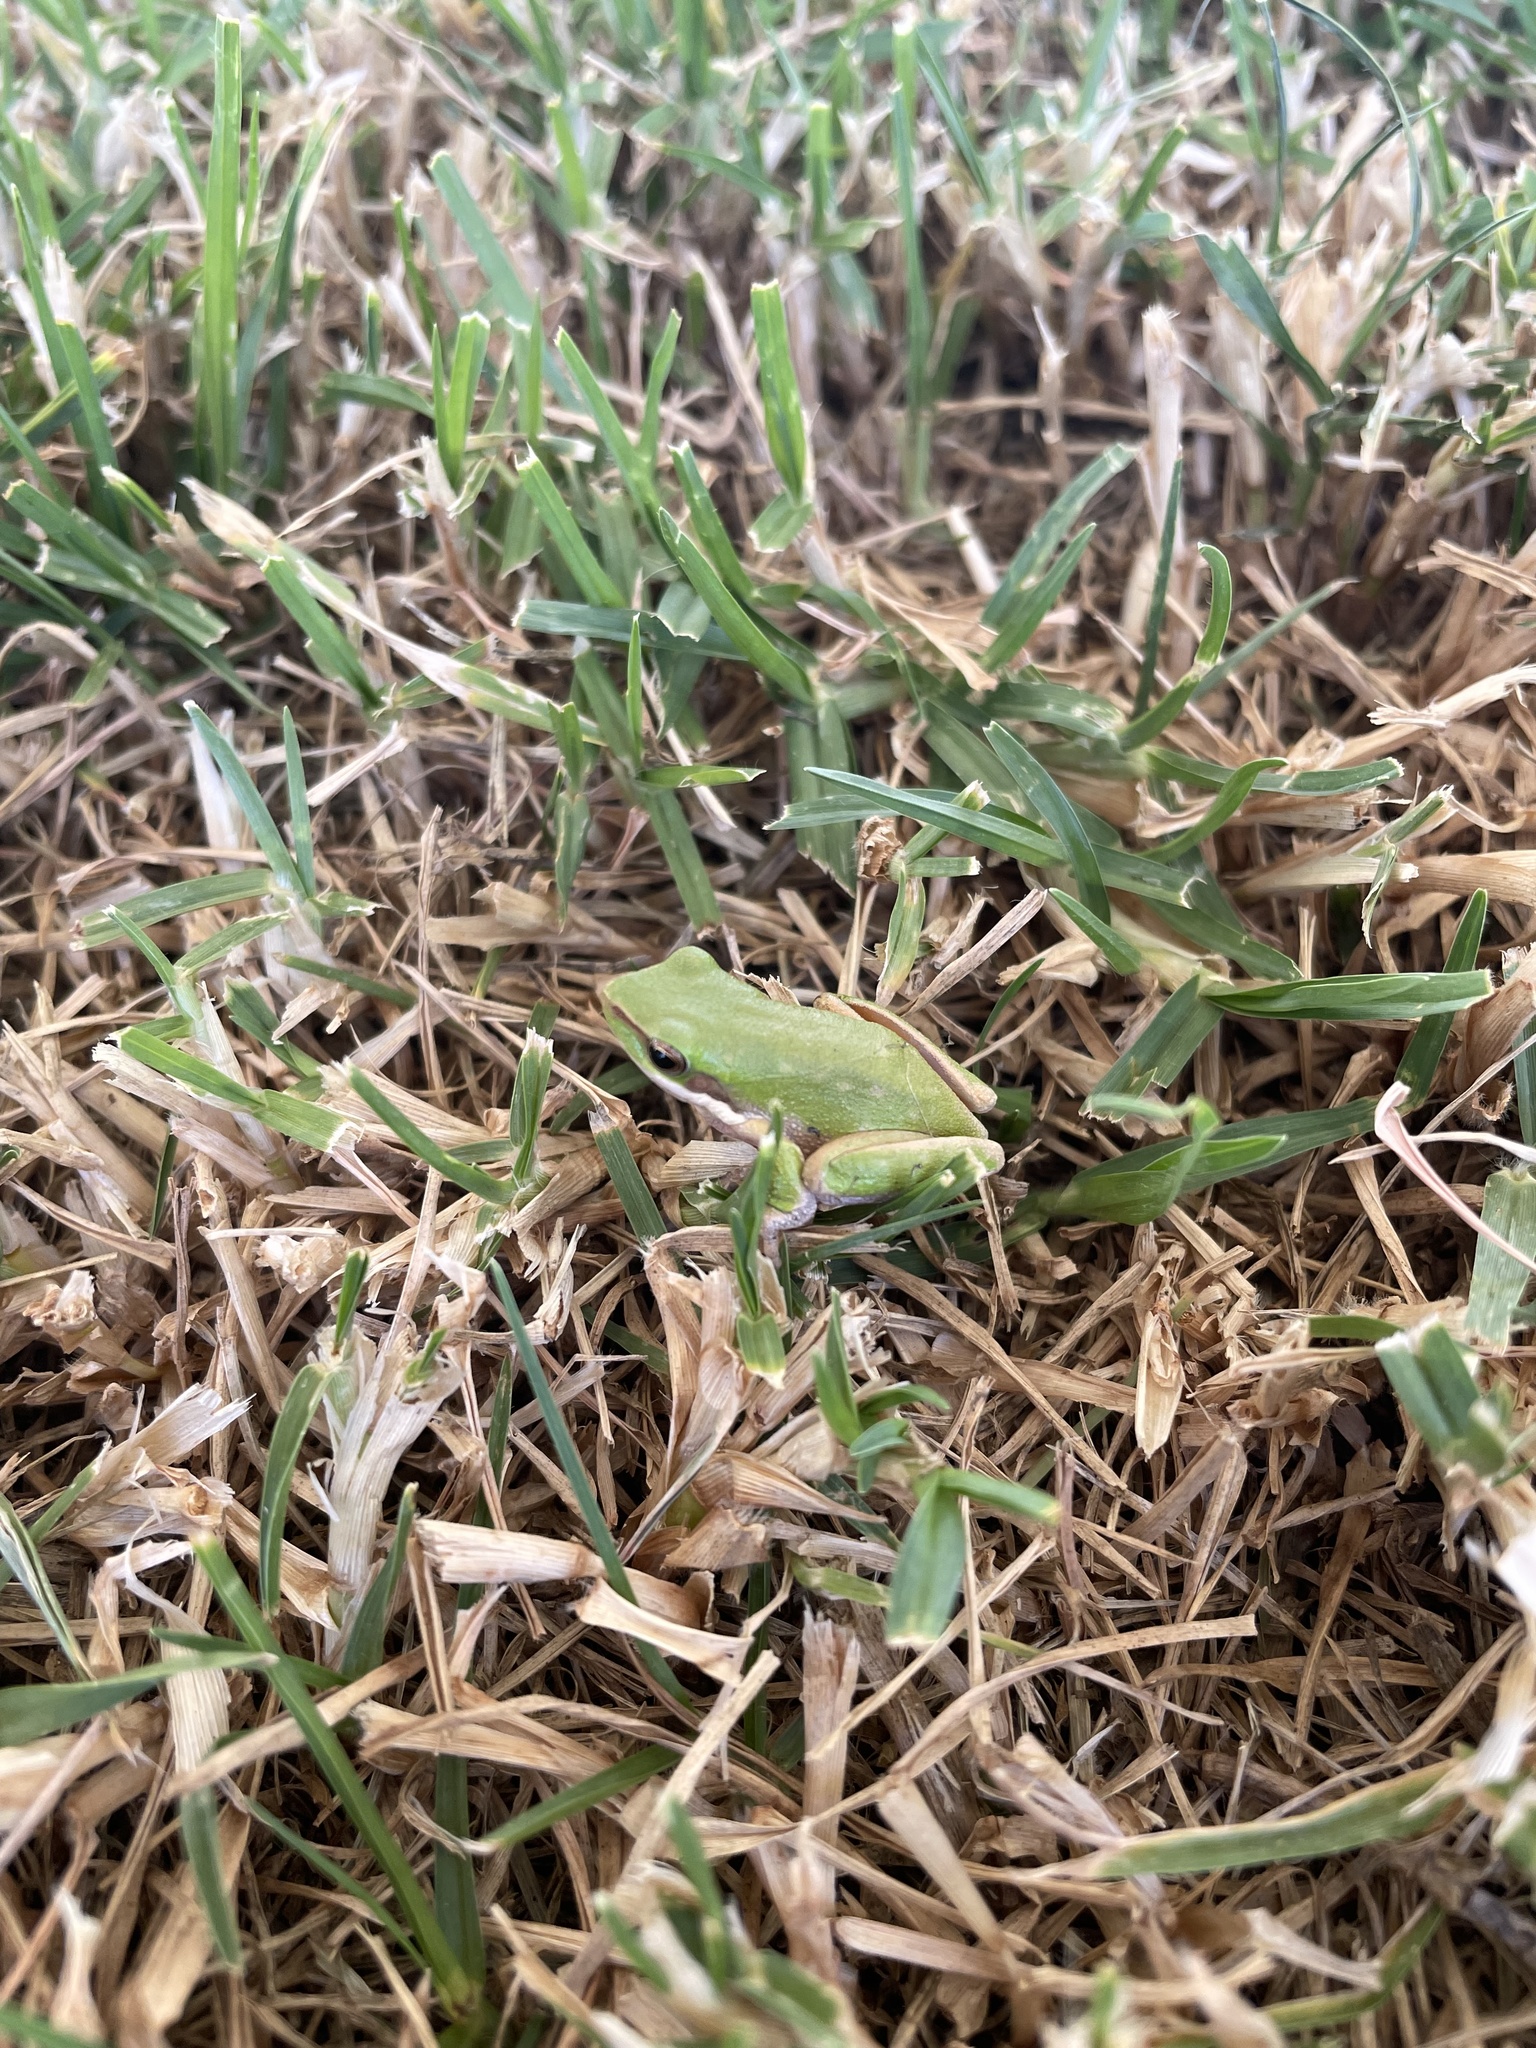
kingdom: Animalia
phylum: Chordata
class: Amphibia
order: Anura
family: Pelodryadidae
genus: Litoria
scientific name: Litoria fallax
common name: Eastern dwarf treefrog
